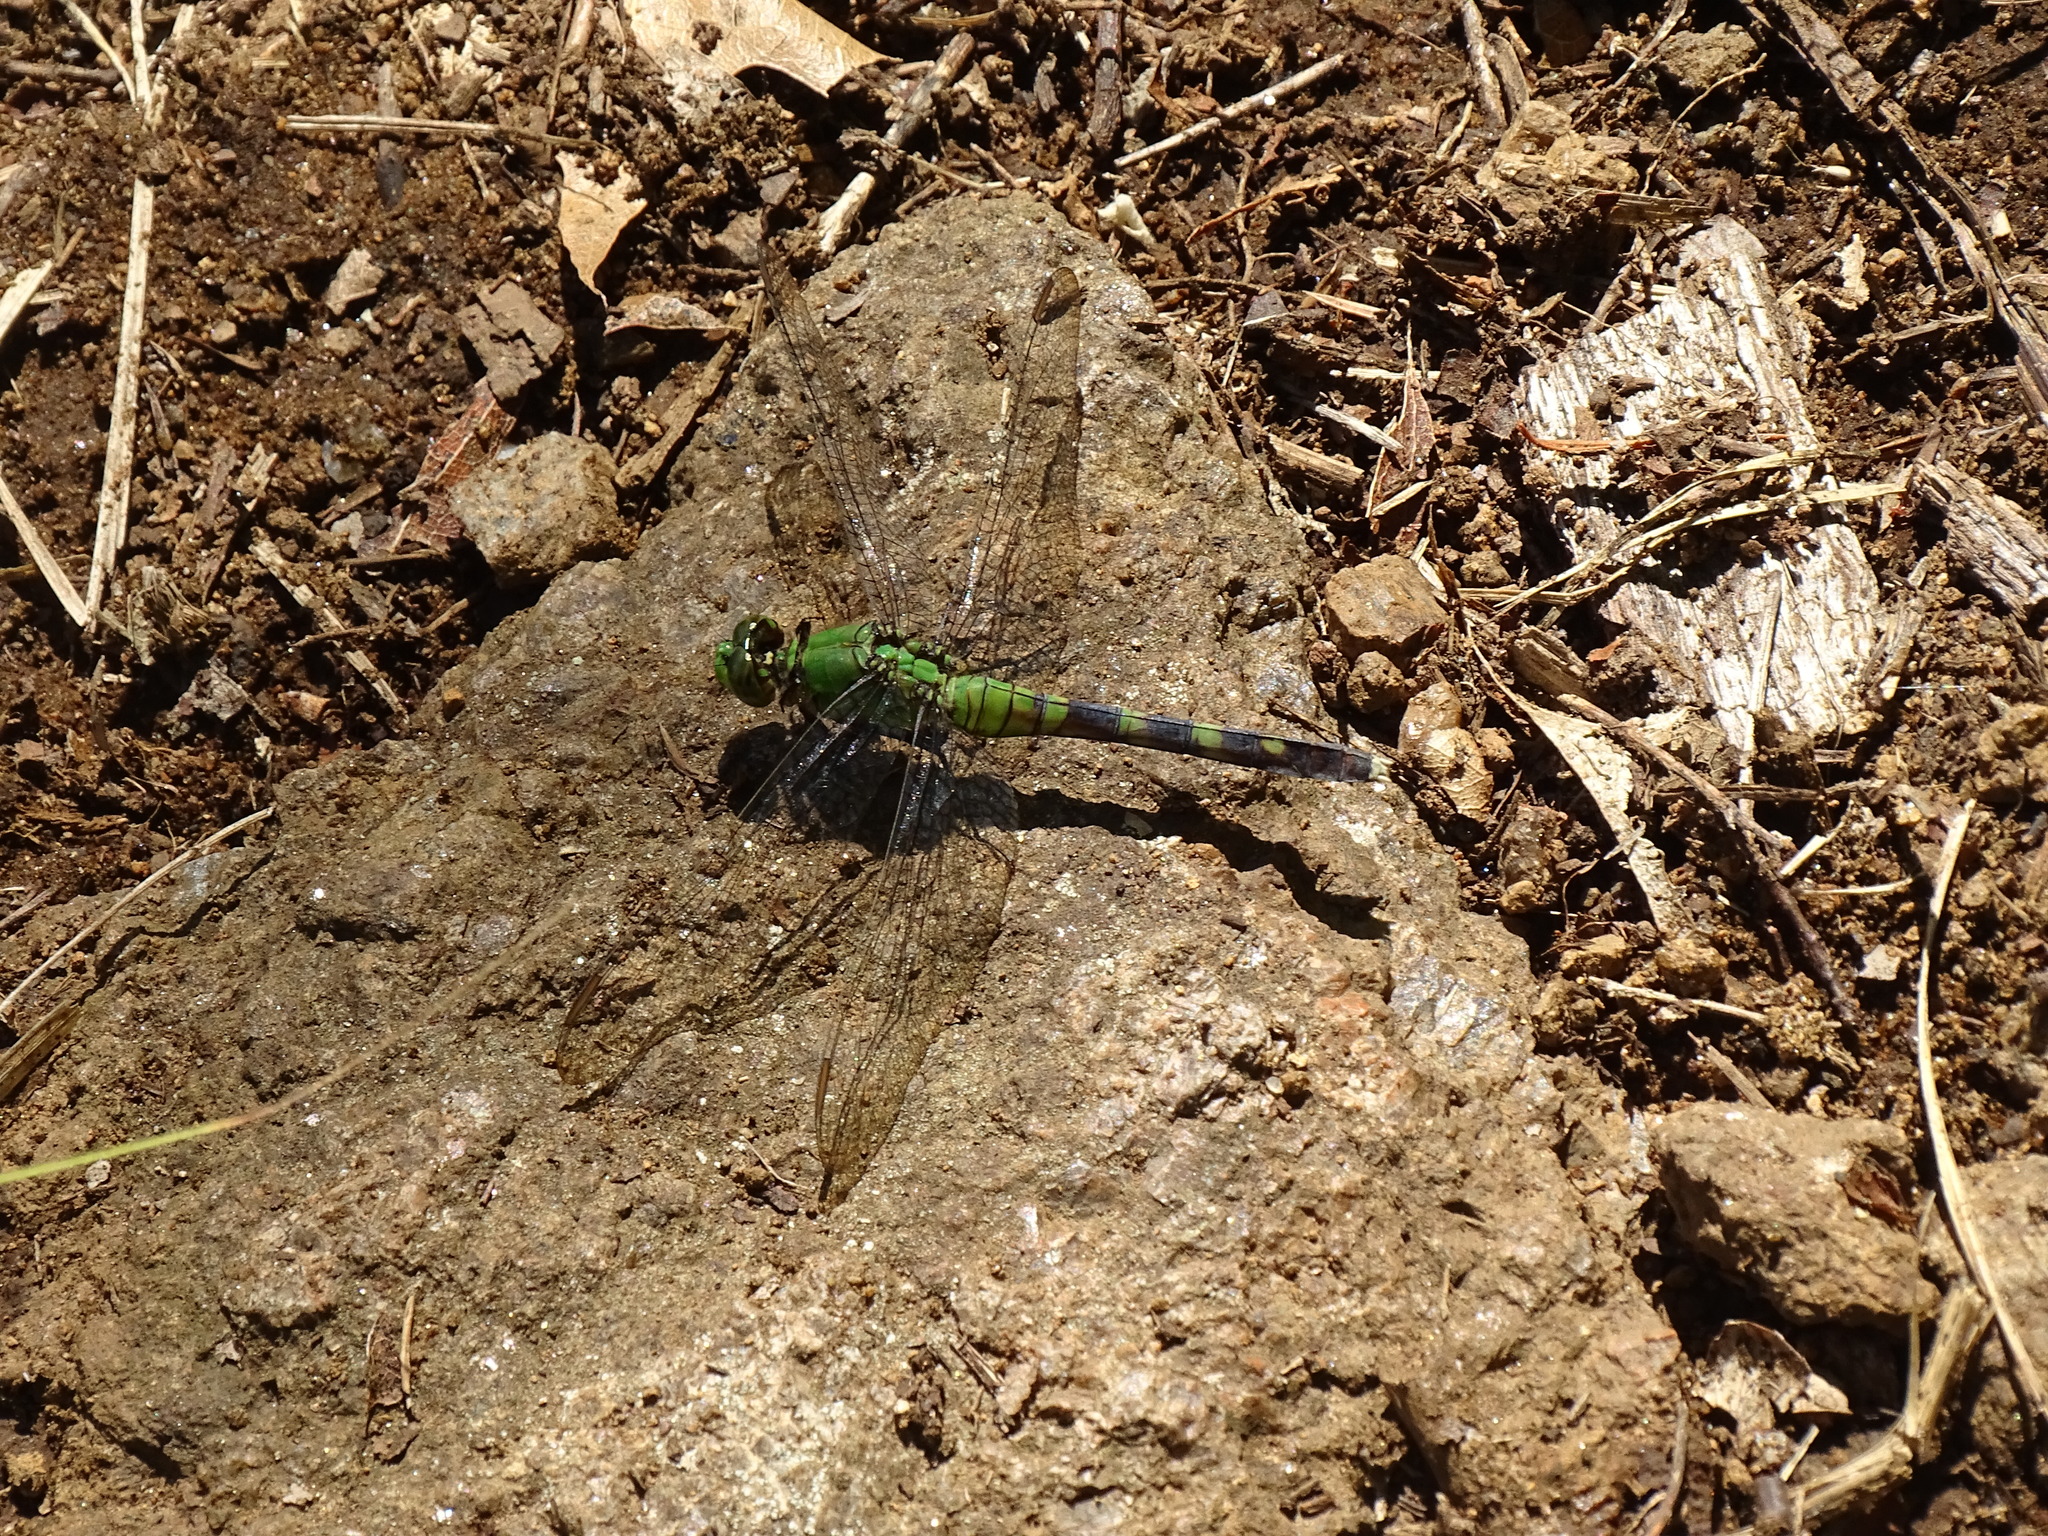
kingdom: Animalia
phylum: Arthropoda
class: Insecta
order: Odonata
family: Libellulidae
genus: Erythemis
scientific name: Erythemis simplicicollis
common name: Eastern pondhawk
